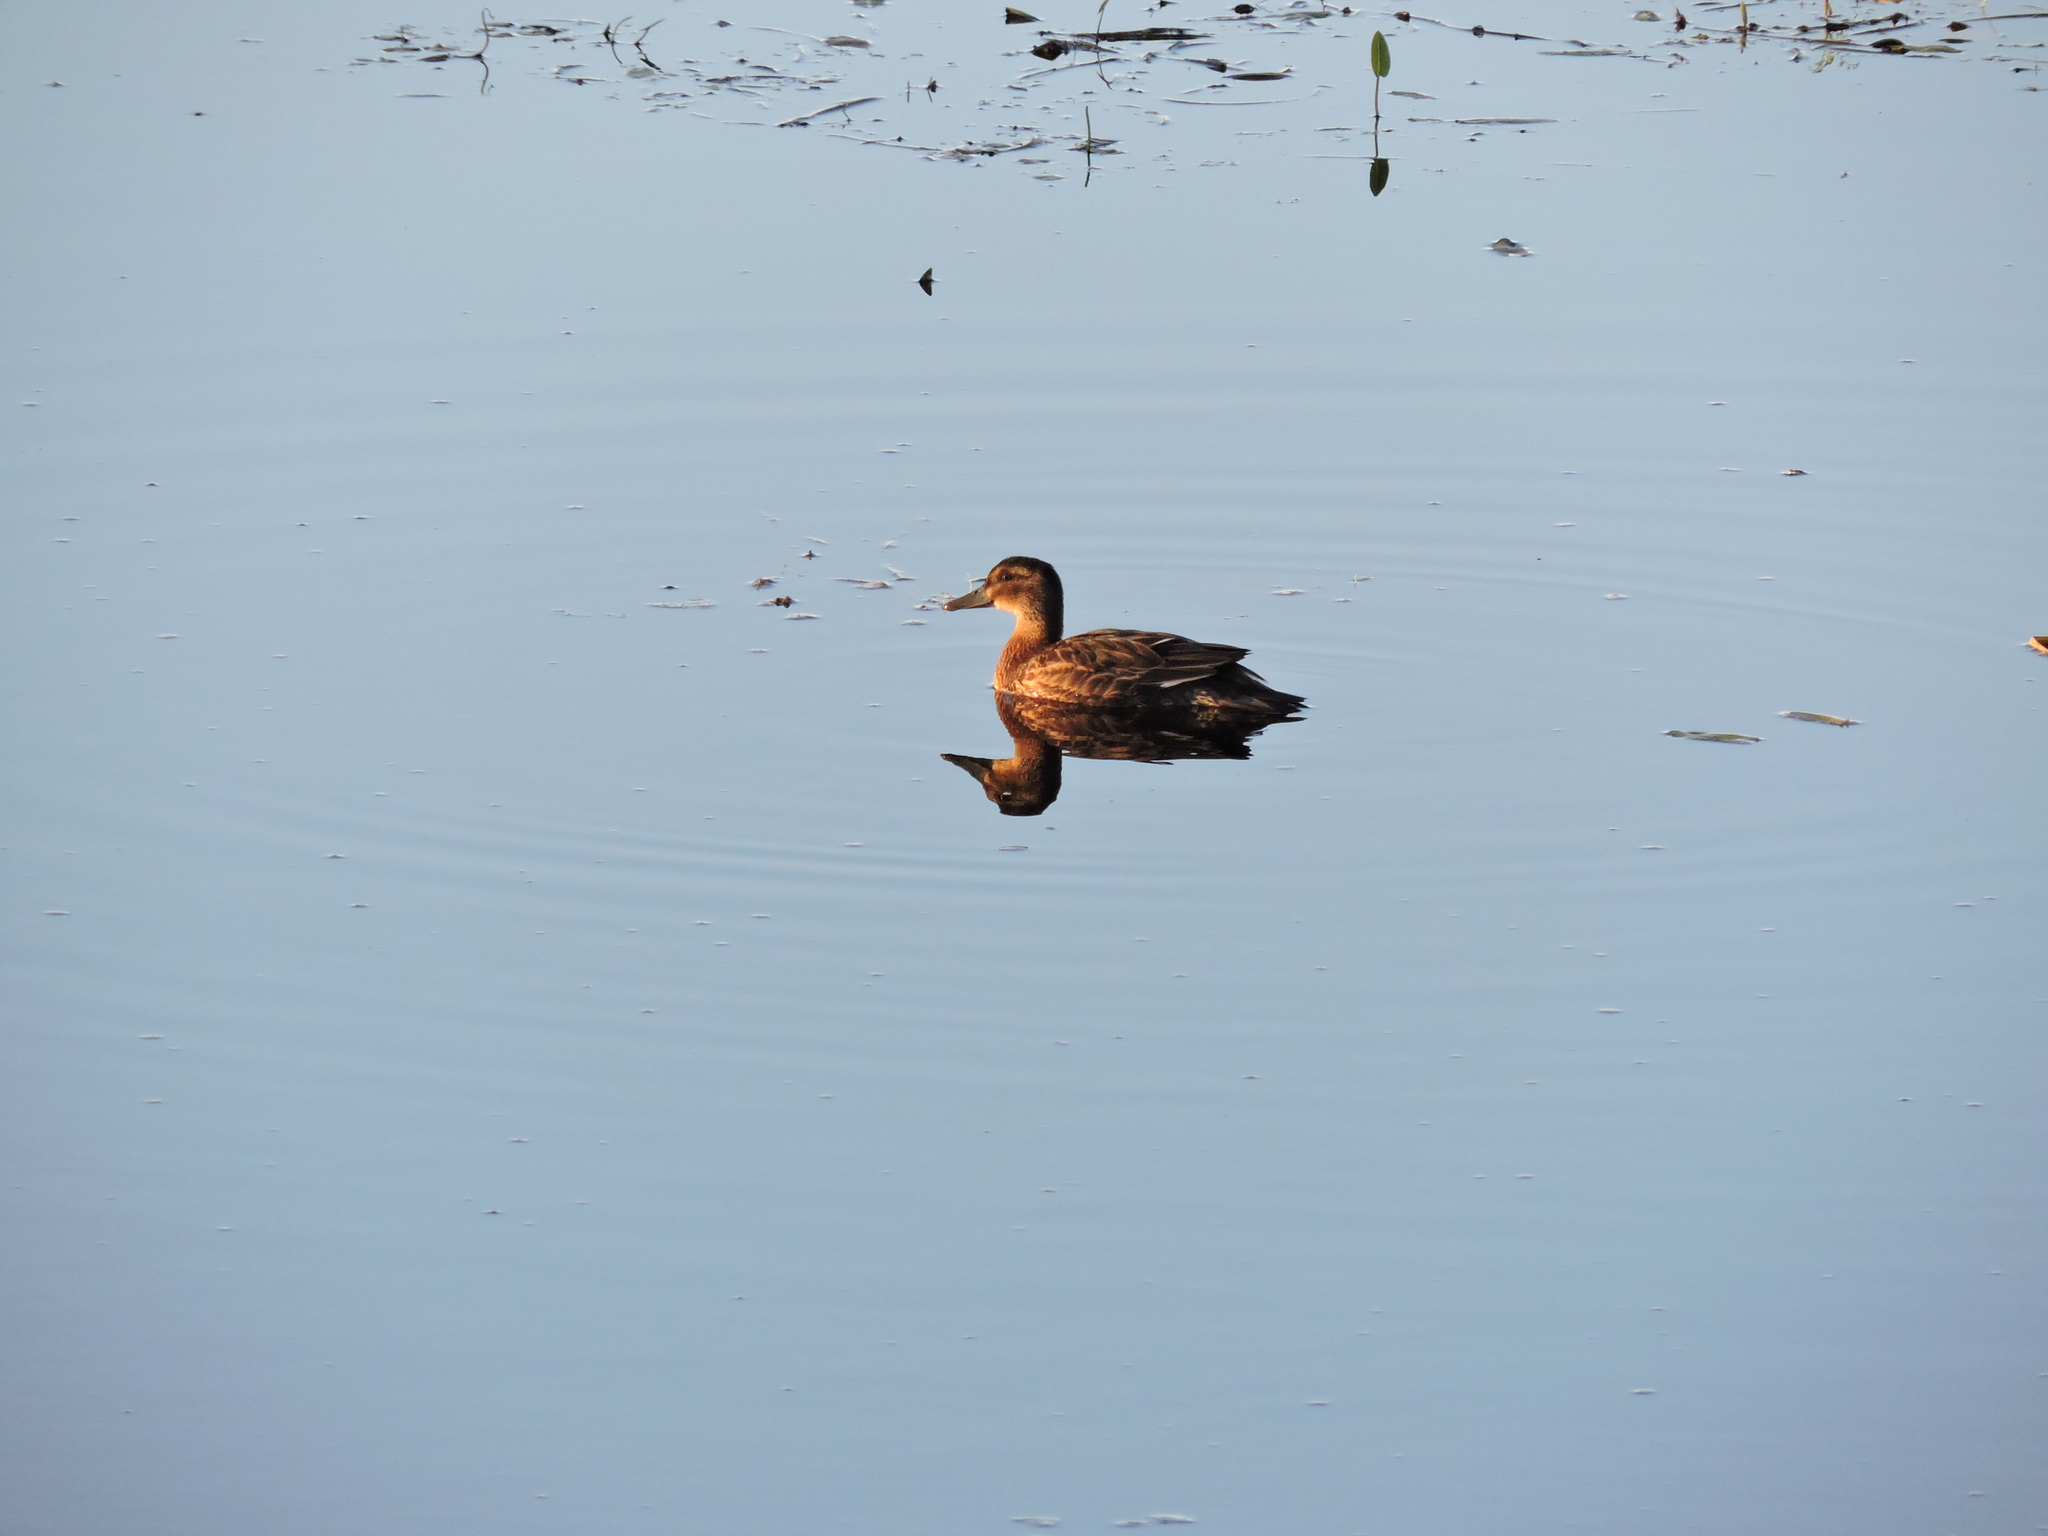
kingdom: Animalia
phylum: Chordata
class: Aves
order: Anseriformes
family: Anatidae
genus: Spatula
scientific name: Spatula querquedula
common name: Garganey
